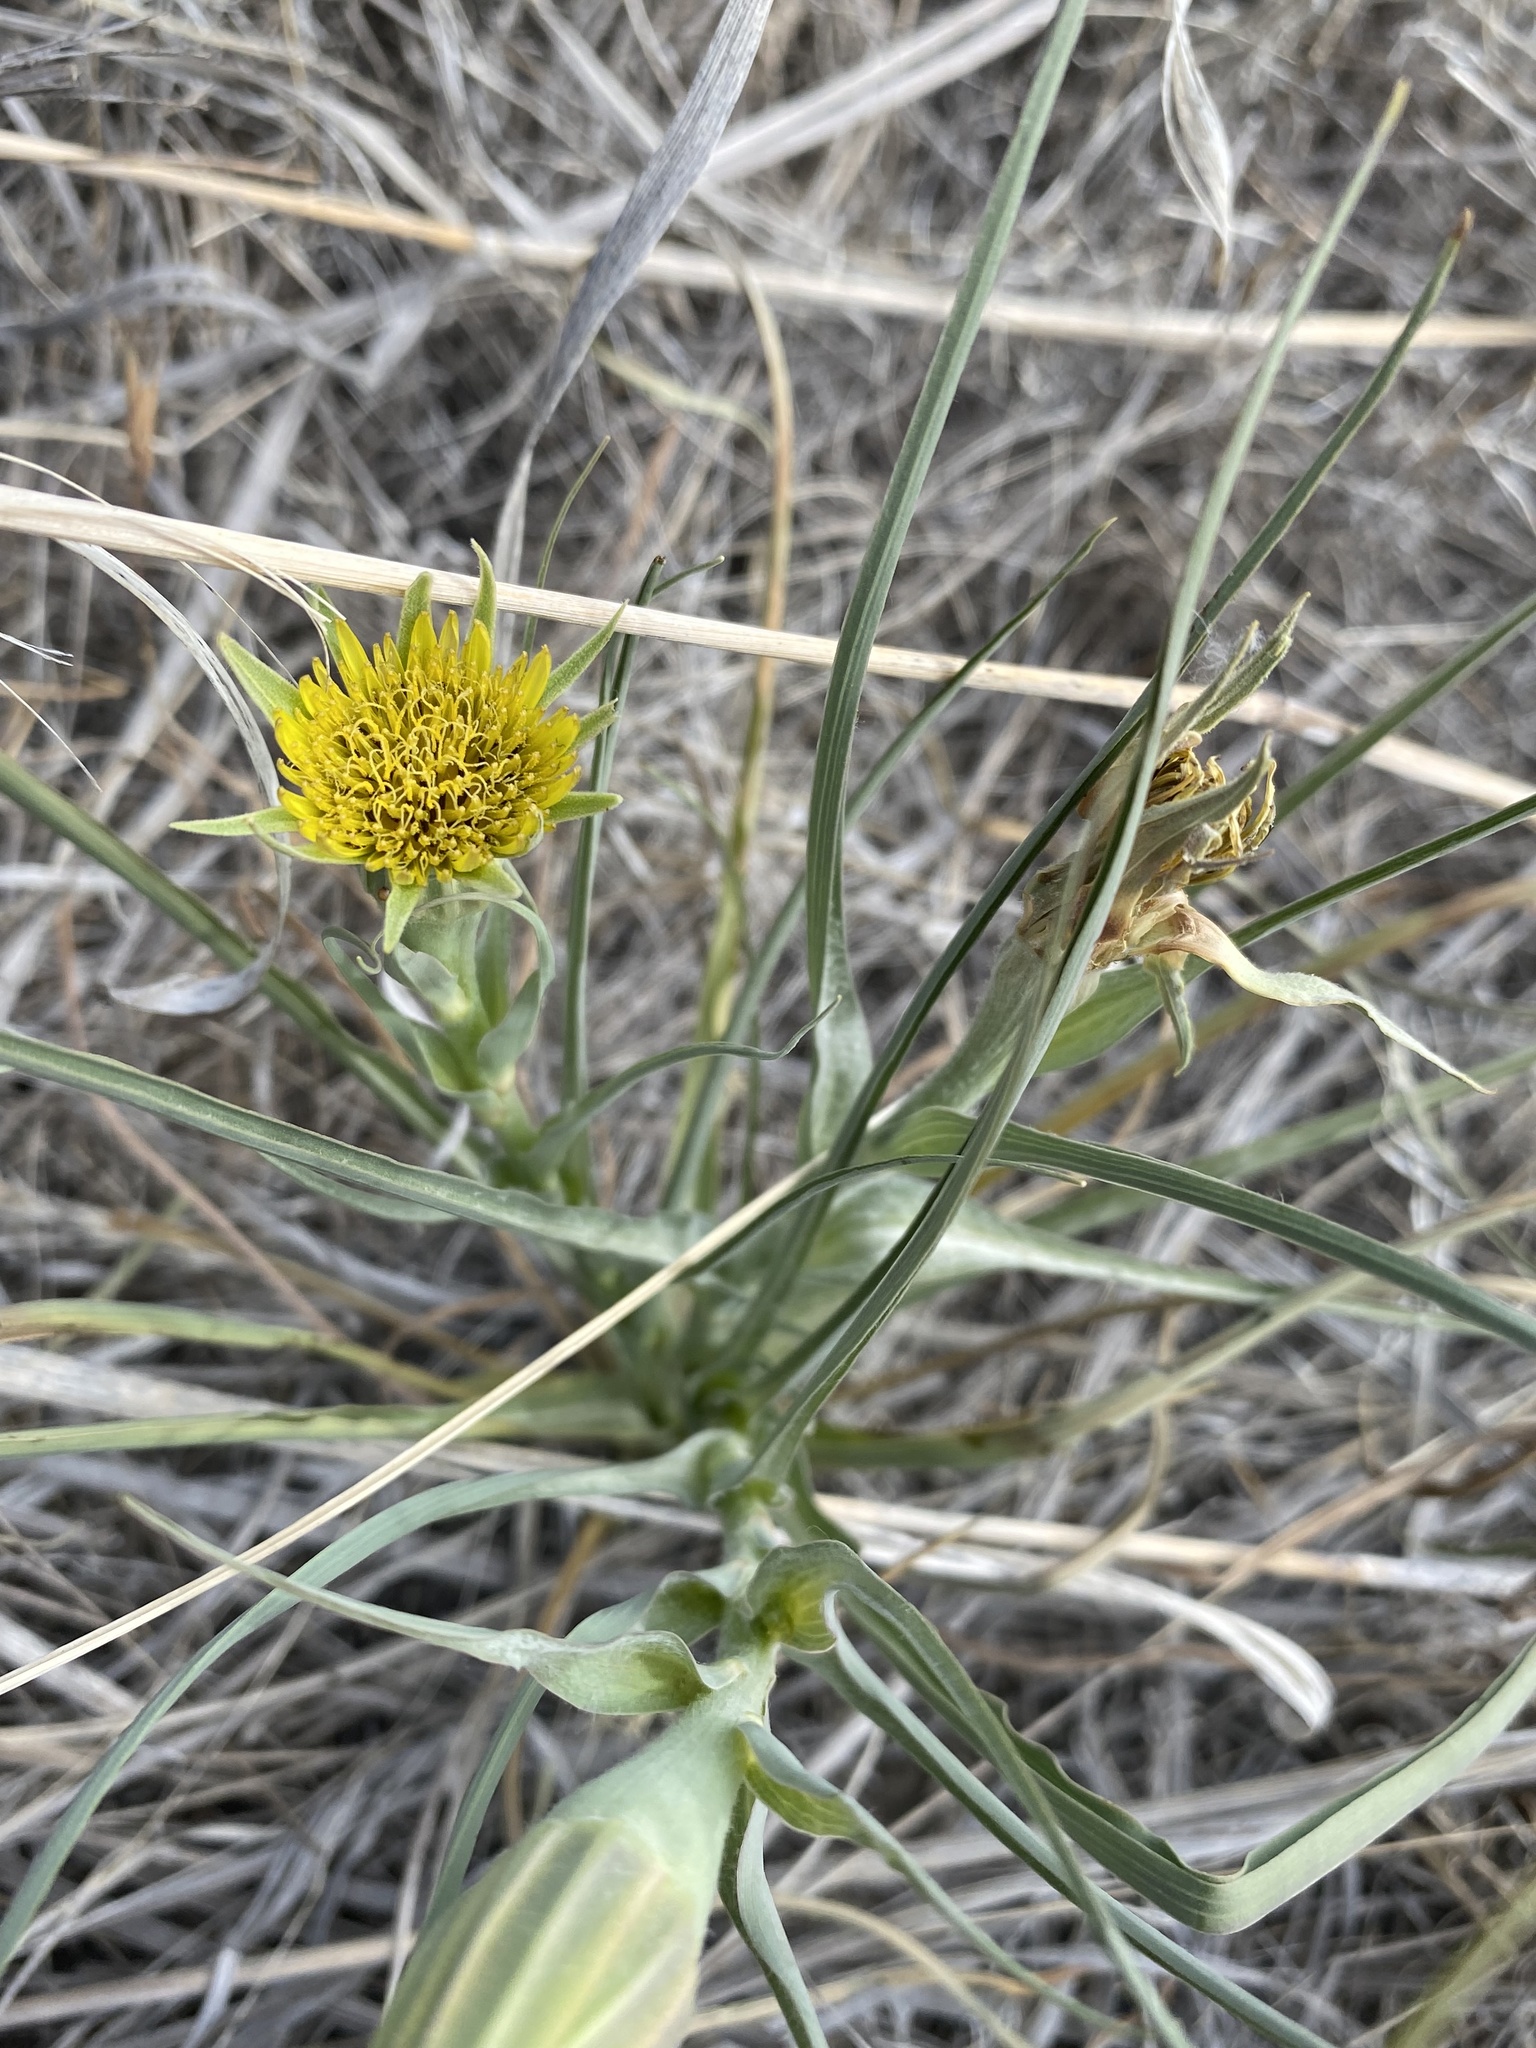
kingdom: Plantae
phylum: Tracheophyta
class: Magnoliopsida
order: Asterales
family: Asteraceae
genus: Tragopogon
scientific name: Tragopogon dubius
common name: Yellow salsify
